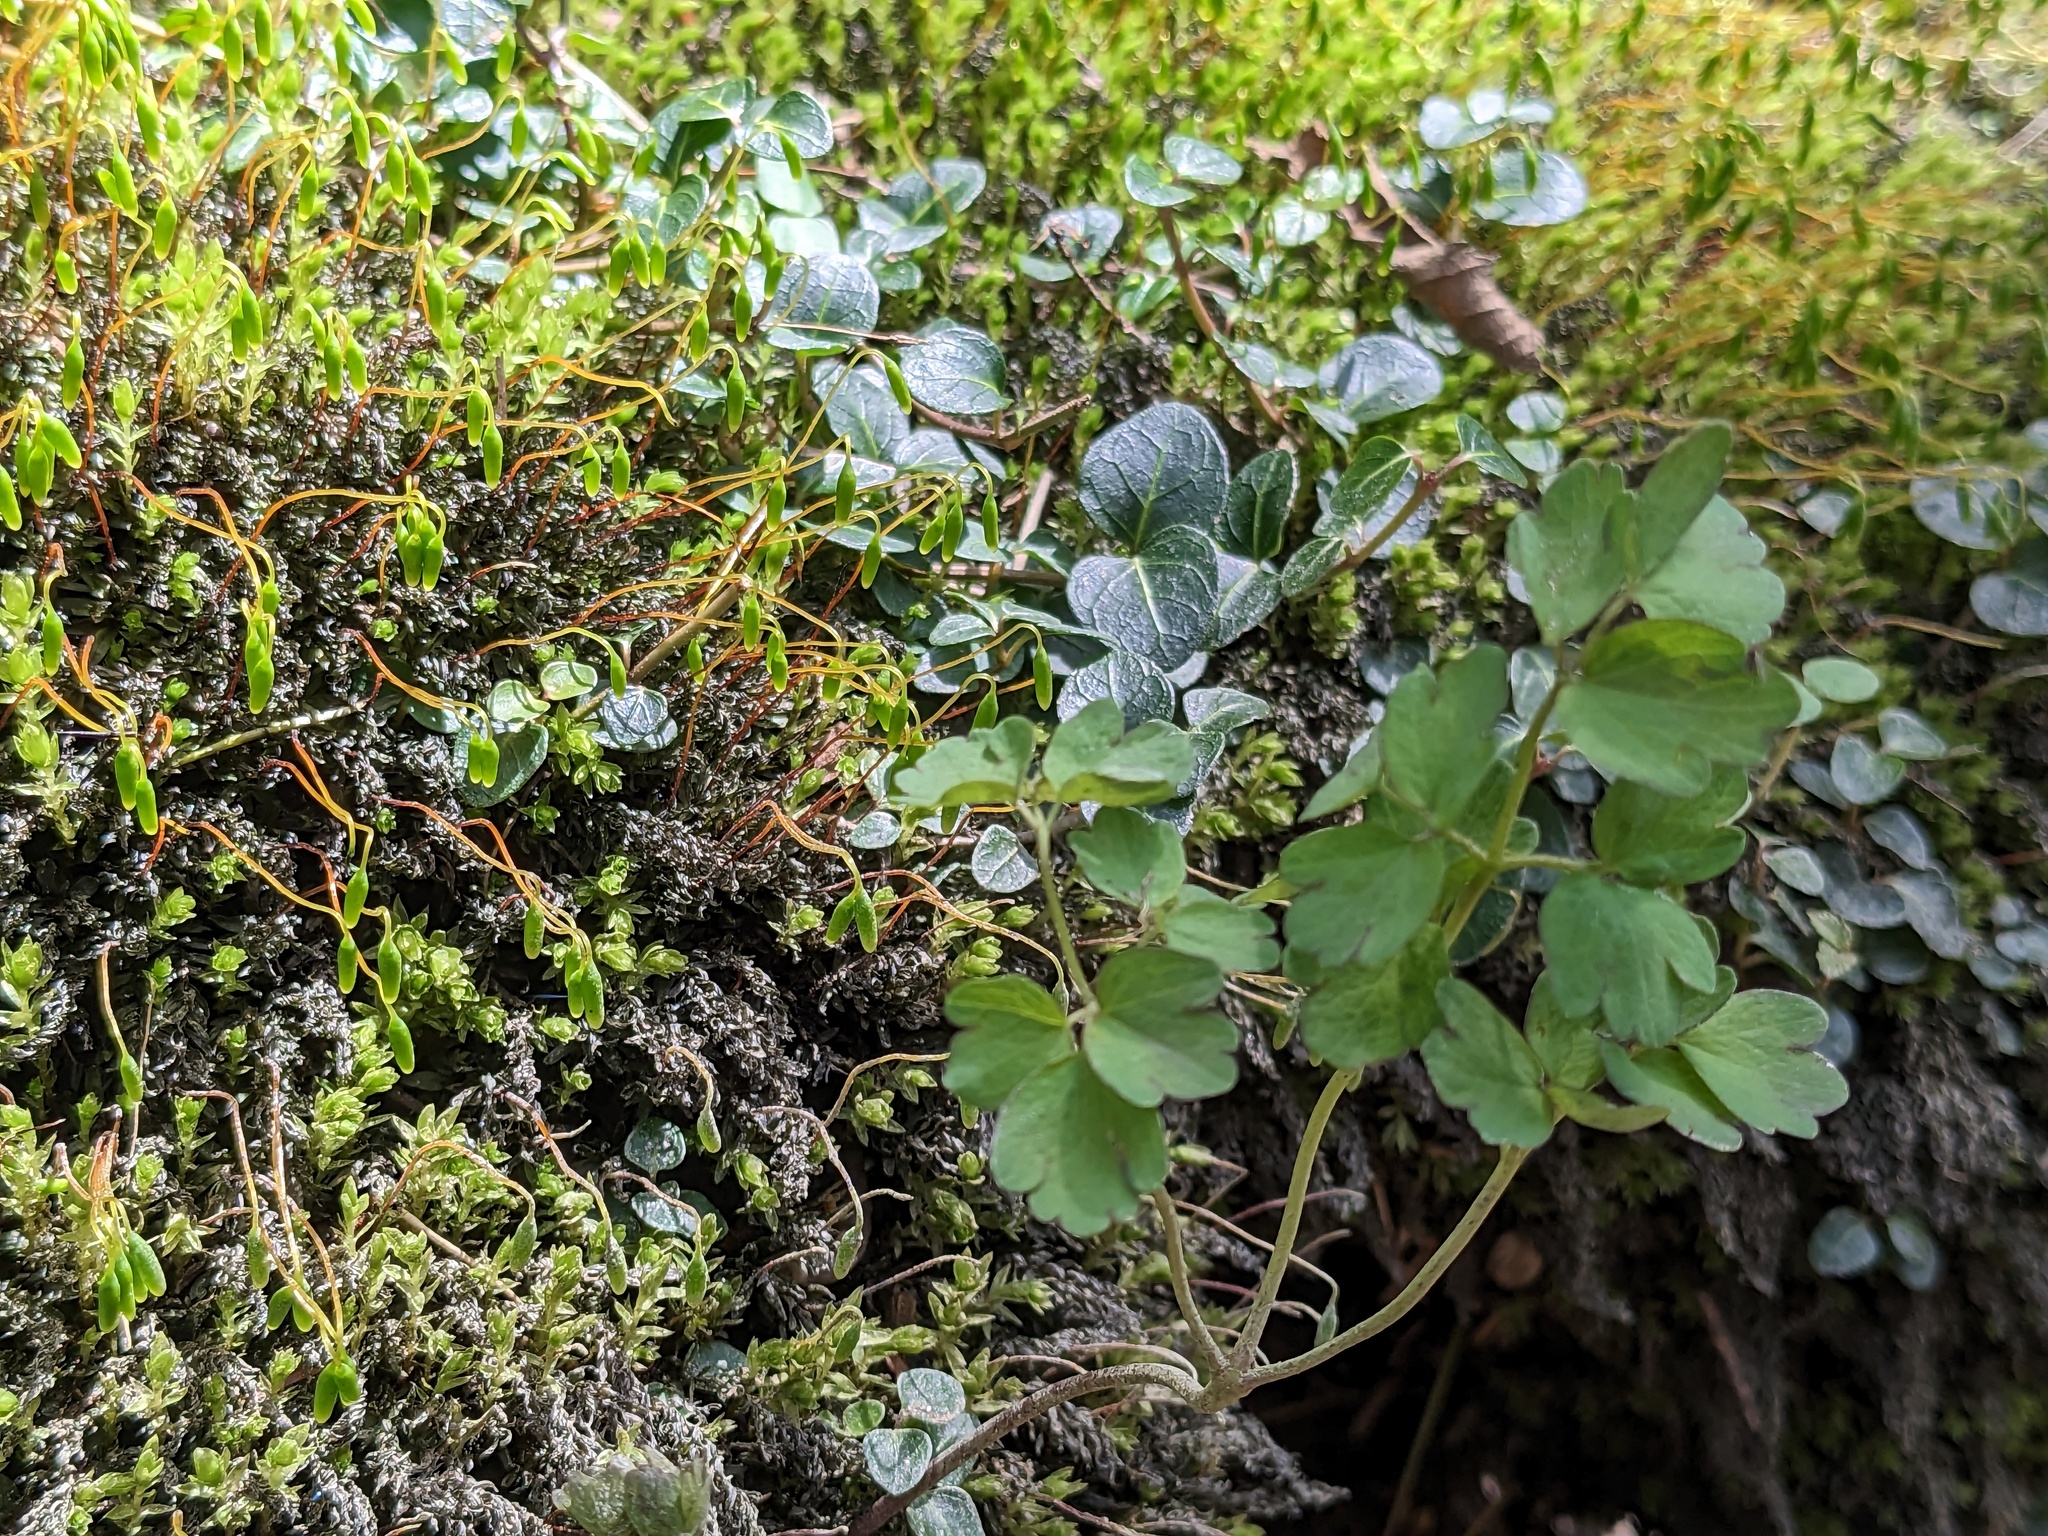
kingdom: Plantae
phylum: Tracheophyta
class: Magnoliopsida
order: Ranunculales
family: Ranunculaceae
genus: Thalictrum
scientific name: Thalictrum dioicum
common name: Early meadow-rue
